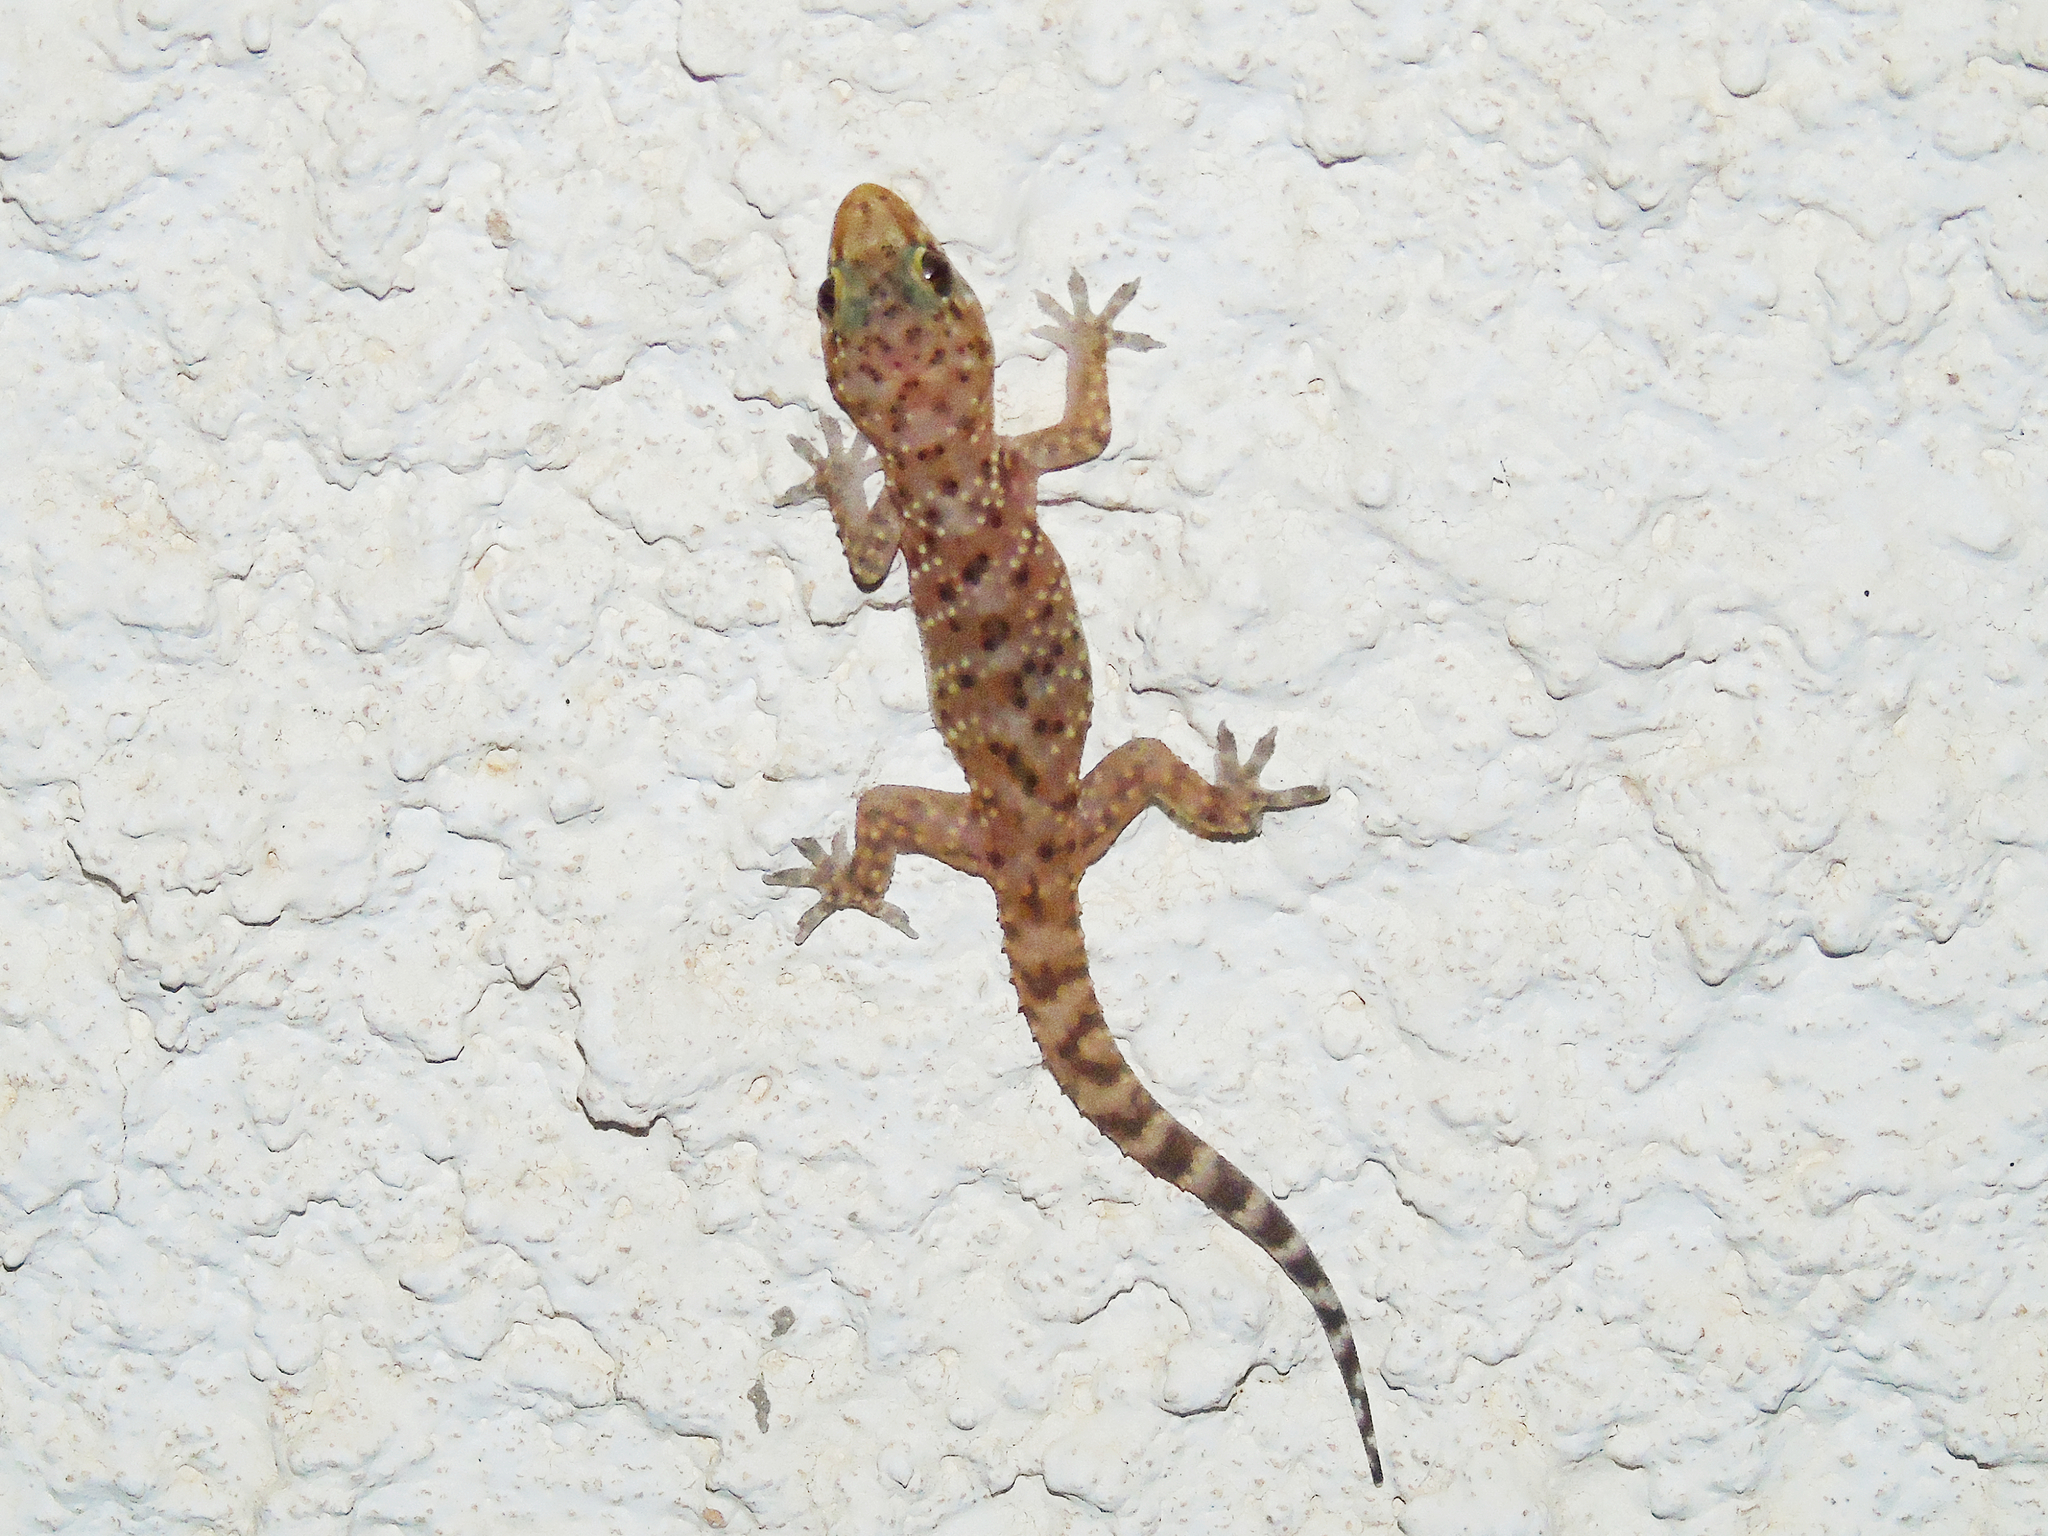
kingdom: Animalia
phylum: Chordata
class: Squamata
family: Gekkonidae
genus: Hemidactylus
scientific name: Hemidactylus turcicus
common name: Turkish gecko
